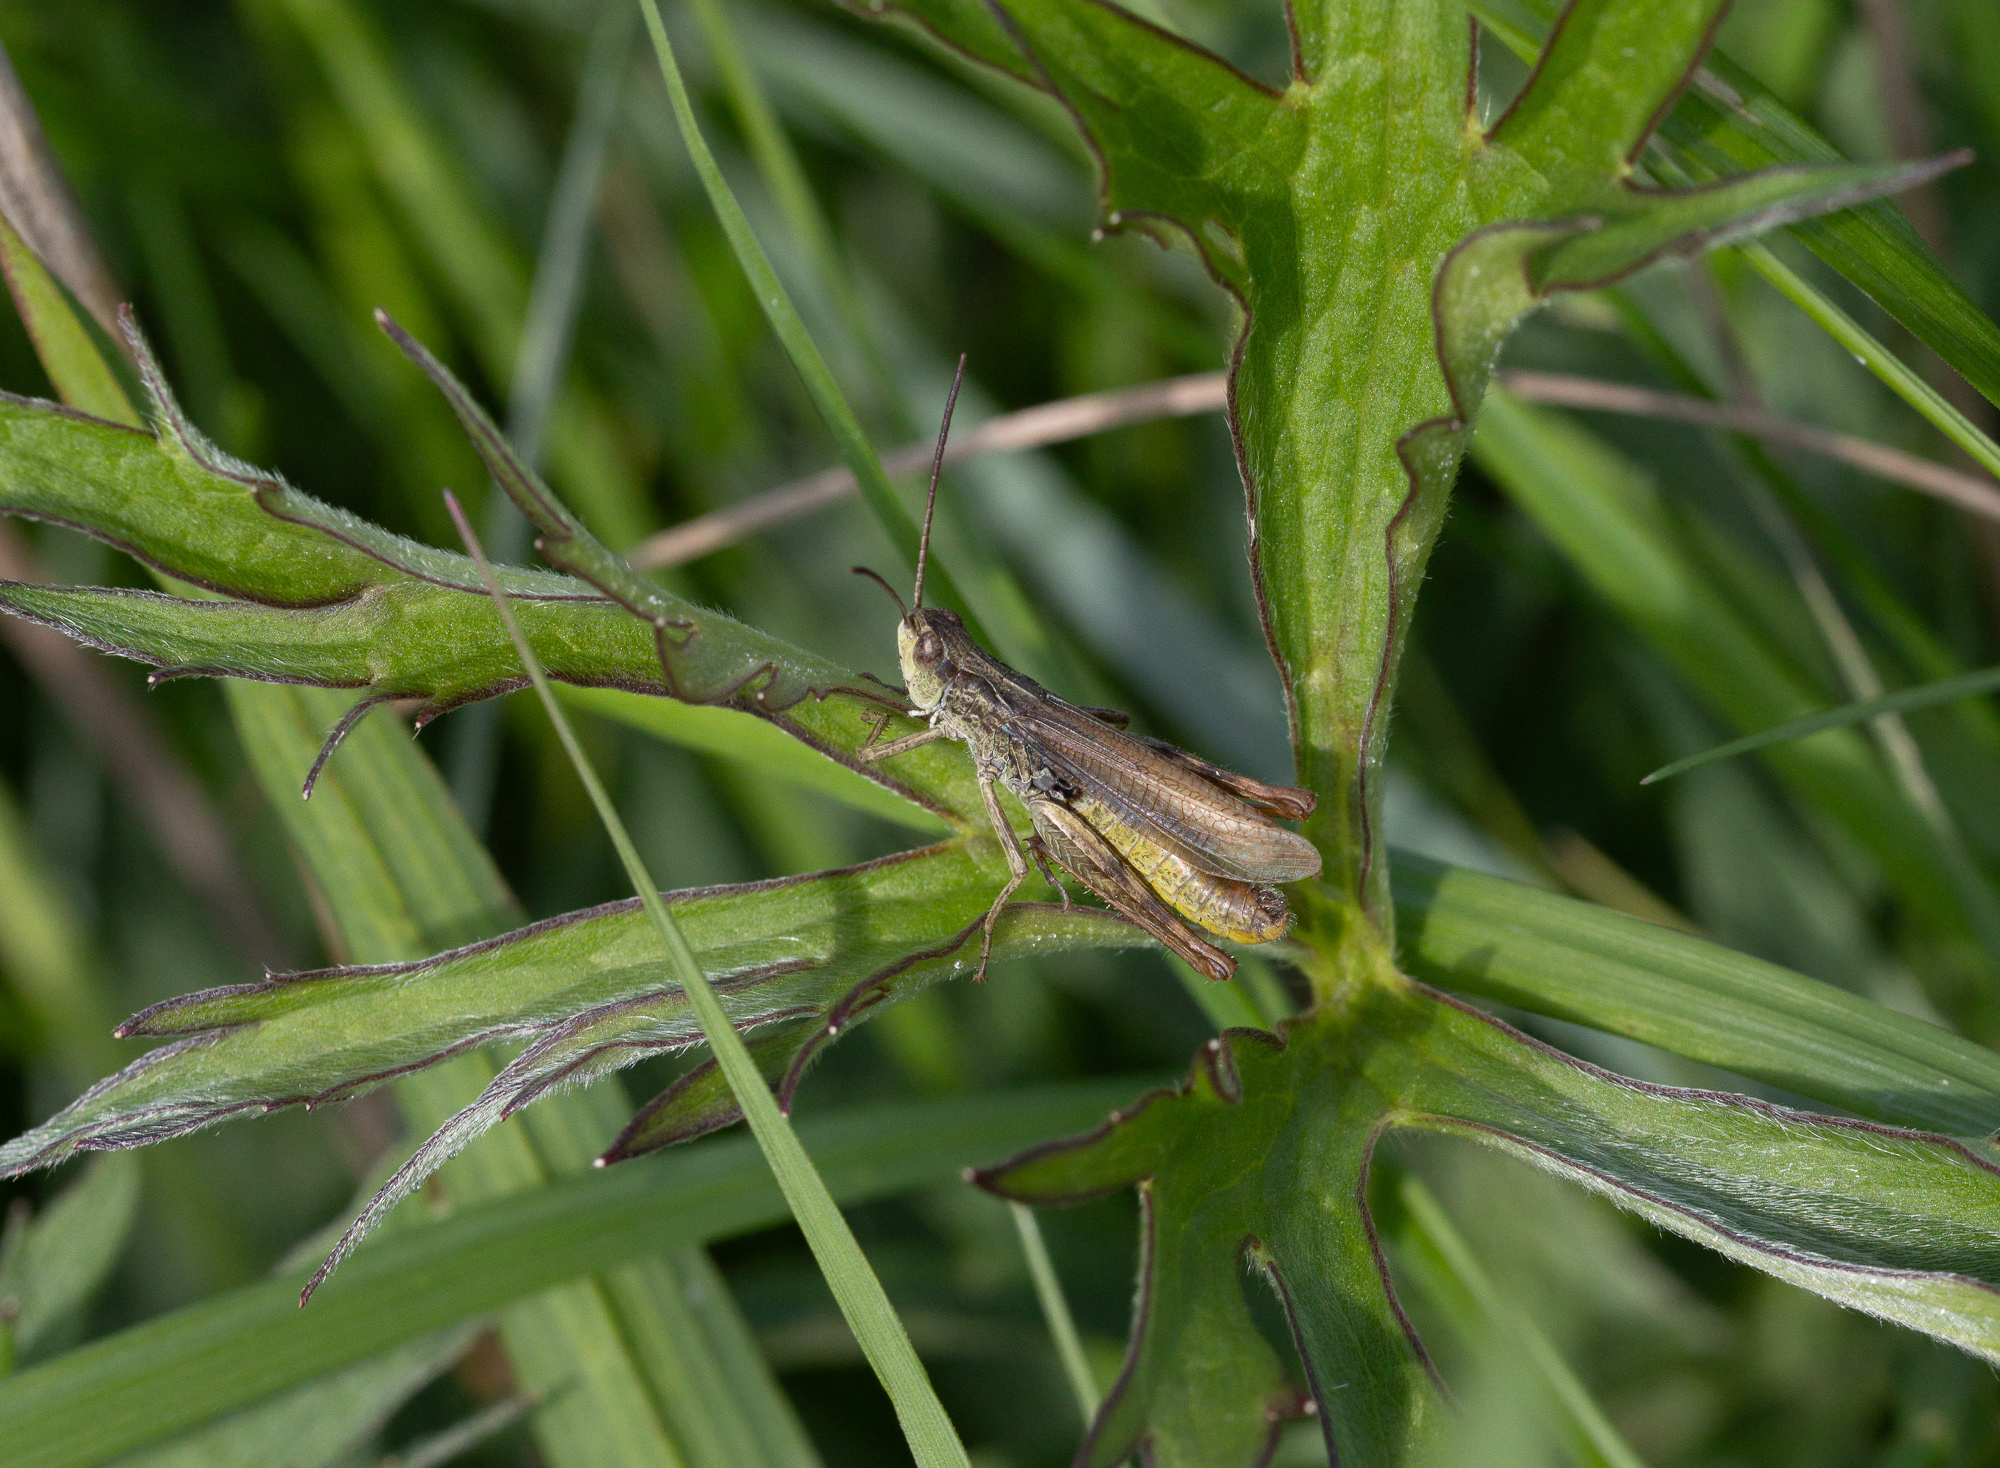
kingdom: Animalia
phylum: Arthropoda
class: Insecta
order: Orthoptera
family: Acrididae
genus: Chorthippus
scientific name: Chorthippus apricarius
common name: Upland field grasshopper
